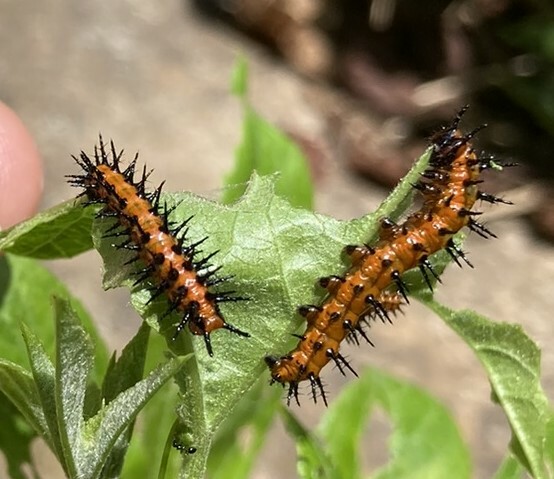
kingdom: Animalia
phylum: Arthropoda
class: Insecta
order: Lepidoptera
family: Nymphalidae
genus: Dione
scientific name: Dione vanillae
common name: Gulf fritillary
